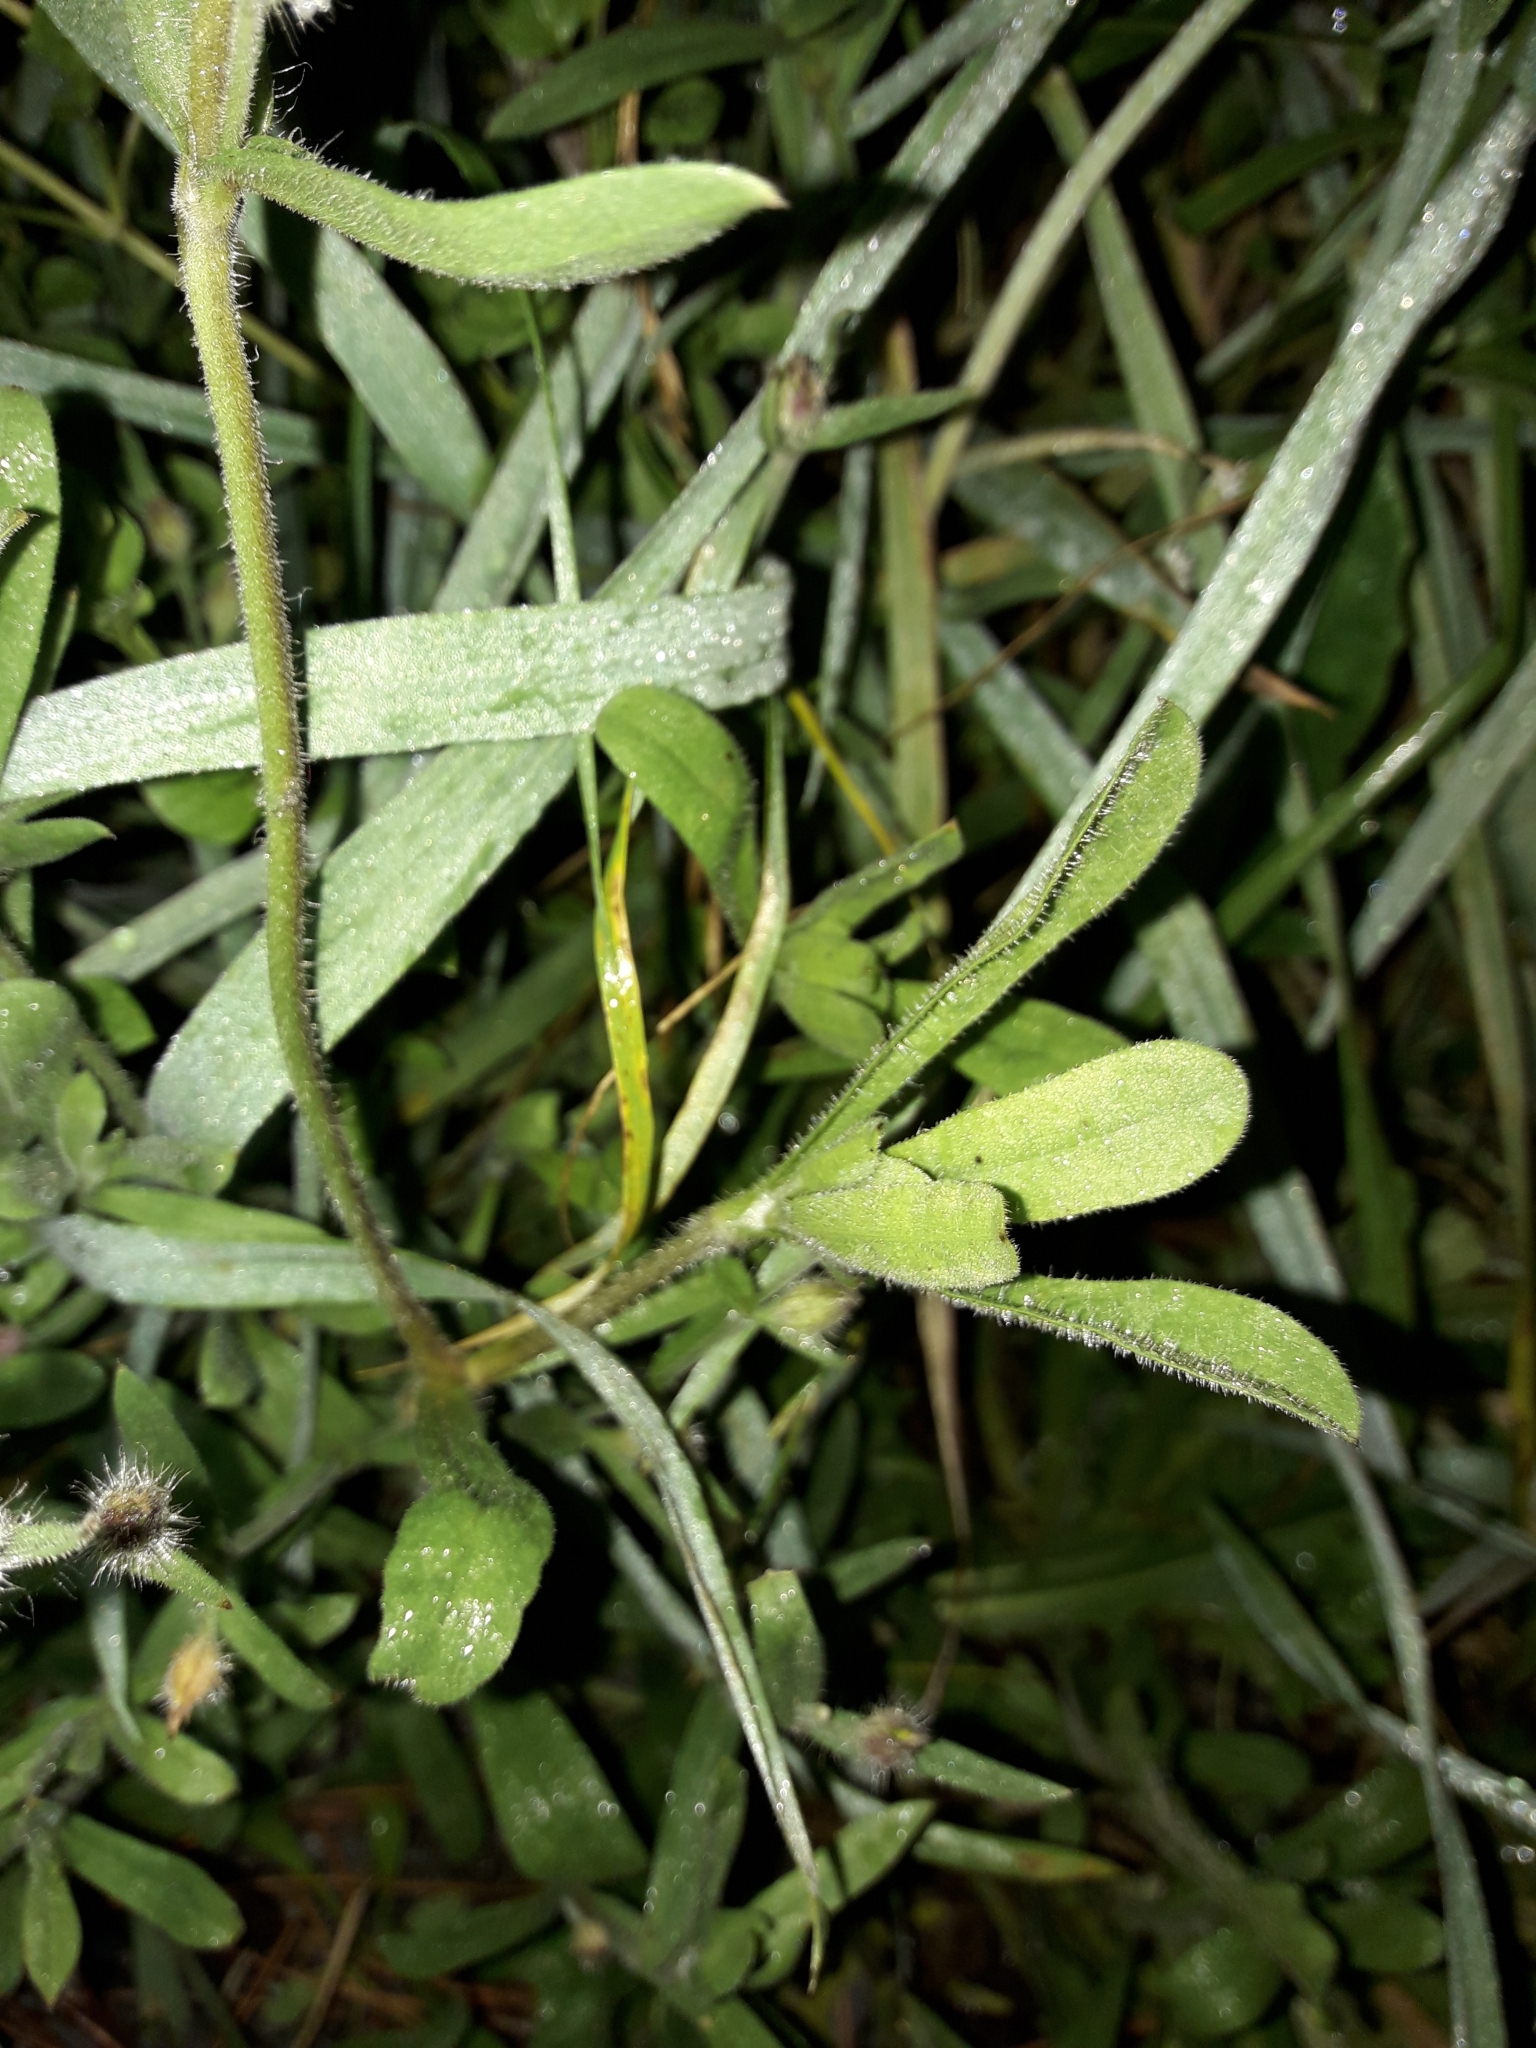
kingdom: Plantae
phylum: Tracheophyta
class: Magnoliopsida
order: Caryophyllales
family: Caryophyllaceae
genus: Silene
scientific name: Silene gallica
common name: Small-flowered catchfly
